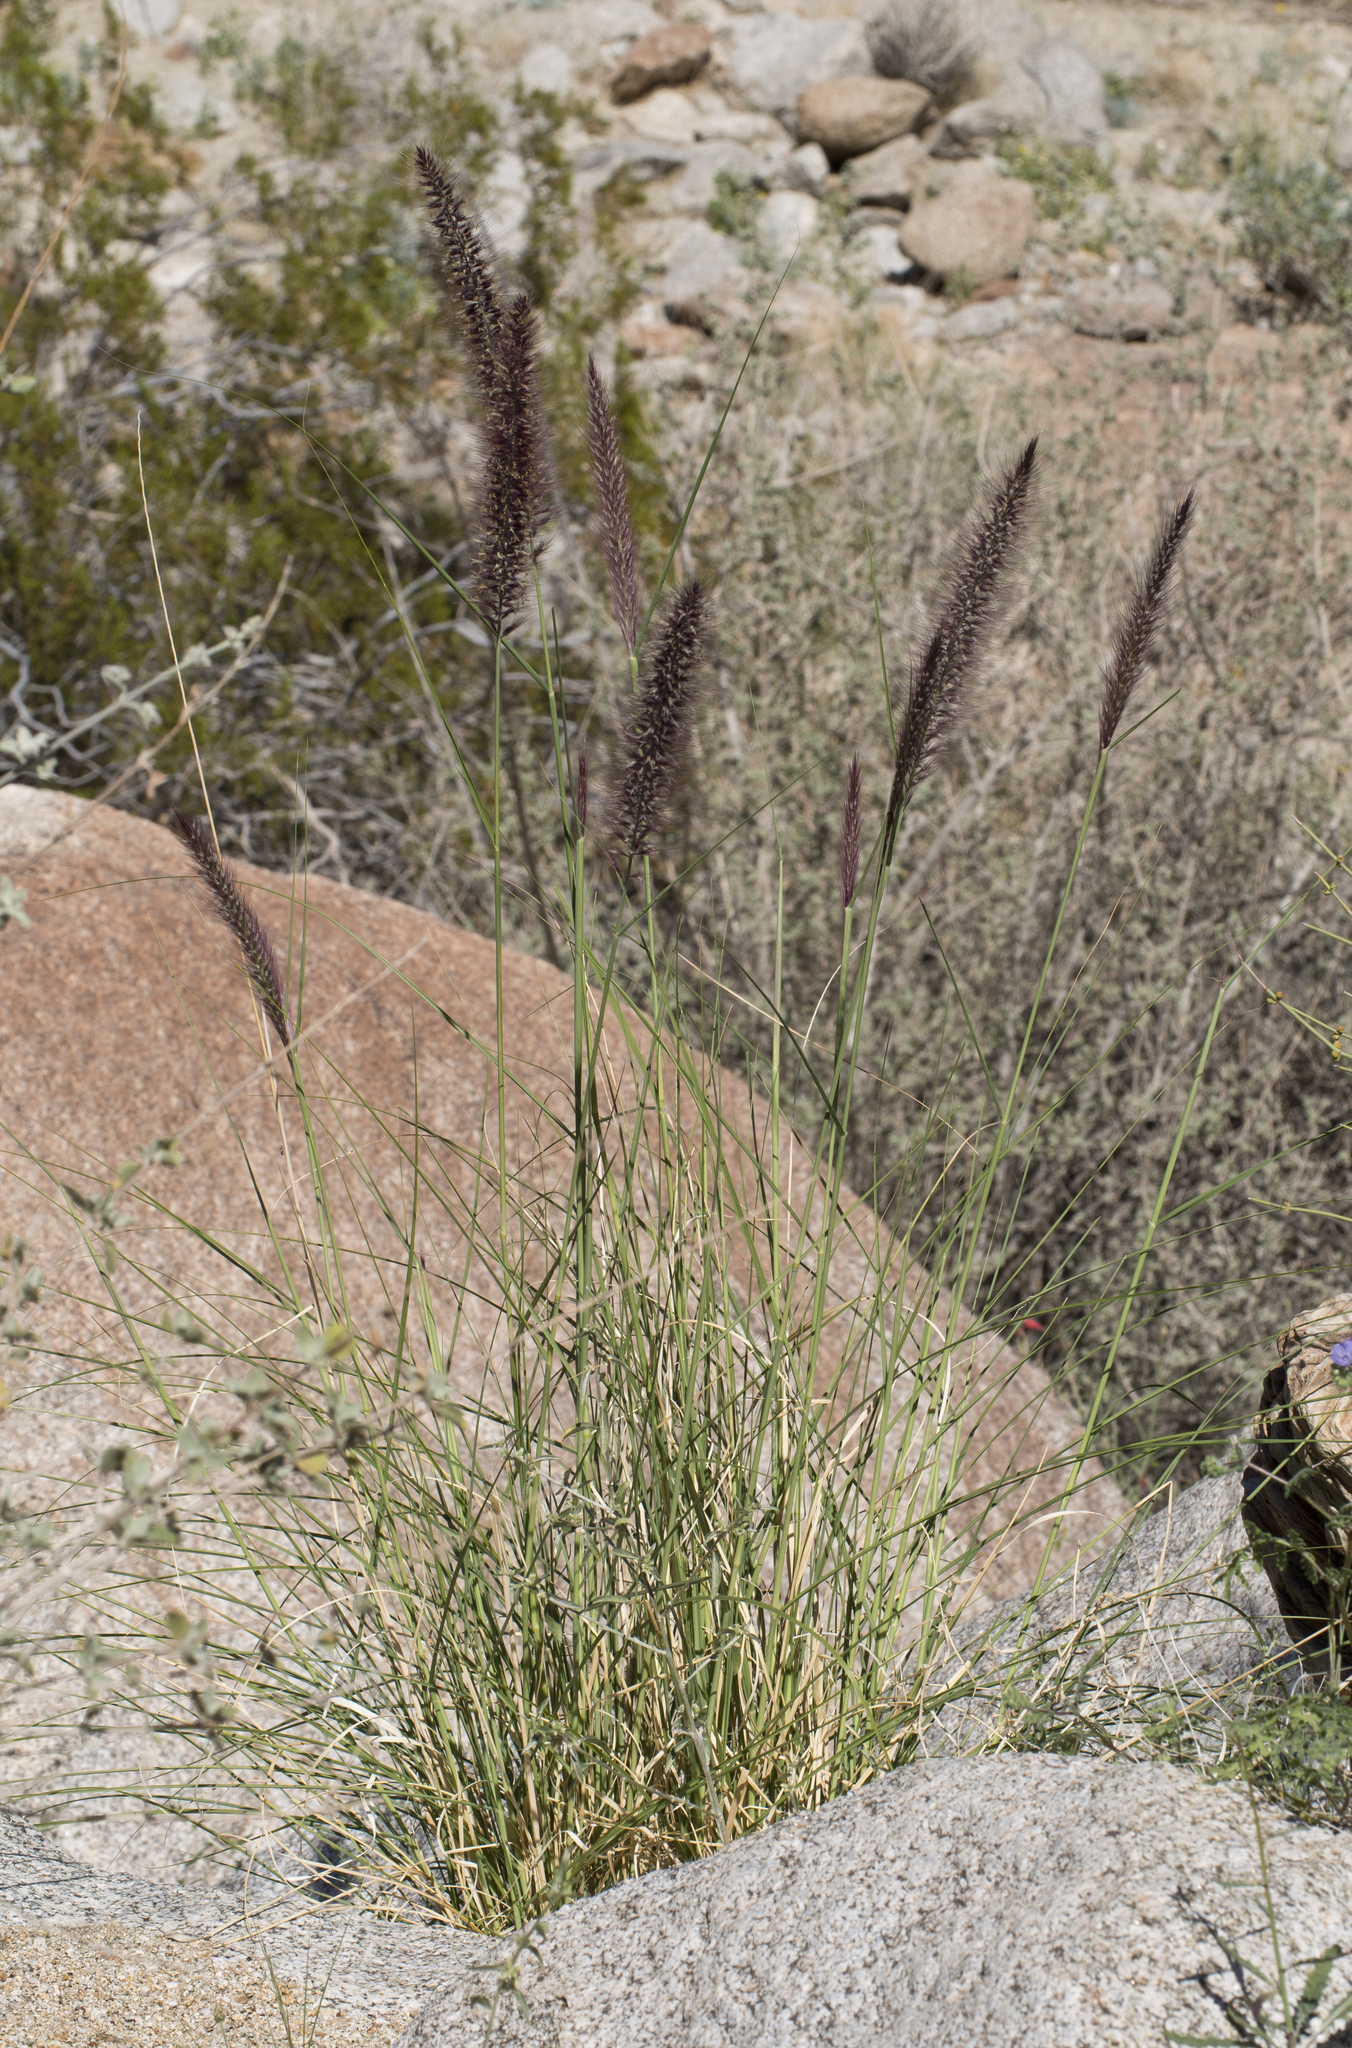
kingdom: Plantae
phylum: Tracheophyta
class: Liliopsida
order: Poales
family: Poaceae
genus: Cenchrus
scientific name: Cenchrus setaceus
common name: Crimson fountaingrass
